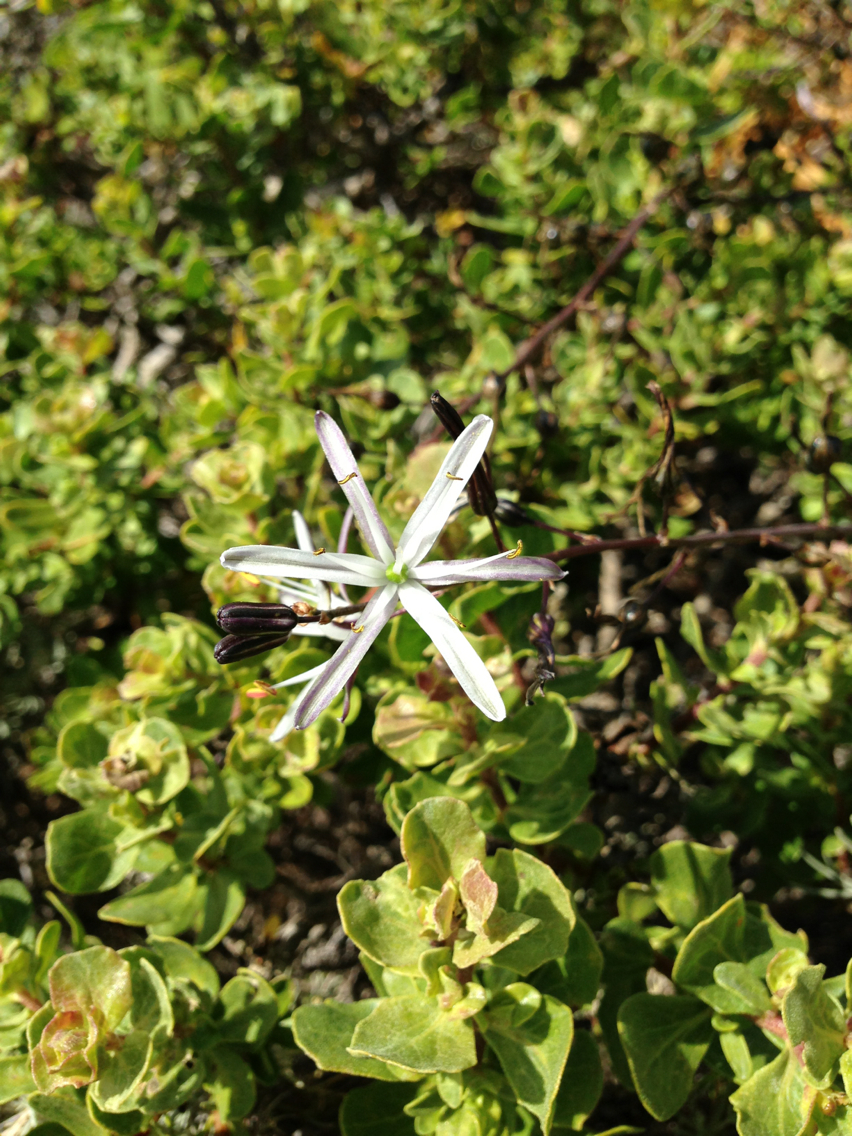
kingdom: Plantae
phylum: Tracheophyta
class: Liliopsida
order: Asparagales
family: Asparagaceae
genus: Chlorogalum
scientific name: Chlorogalum pomeridianum
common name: Amole
